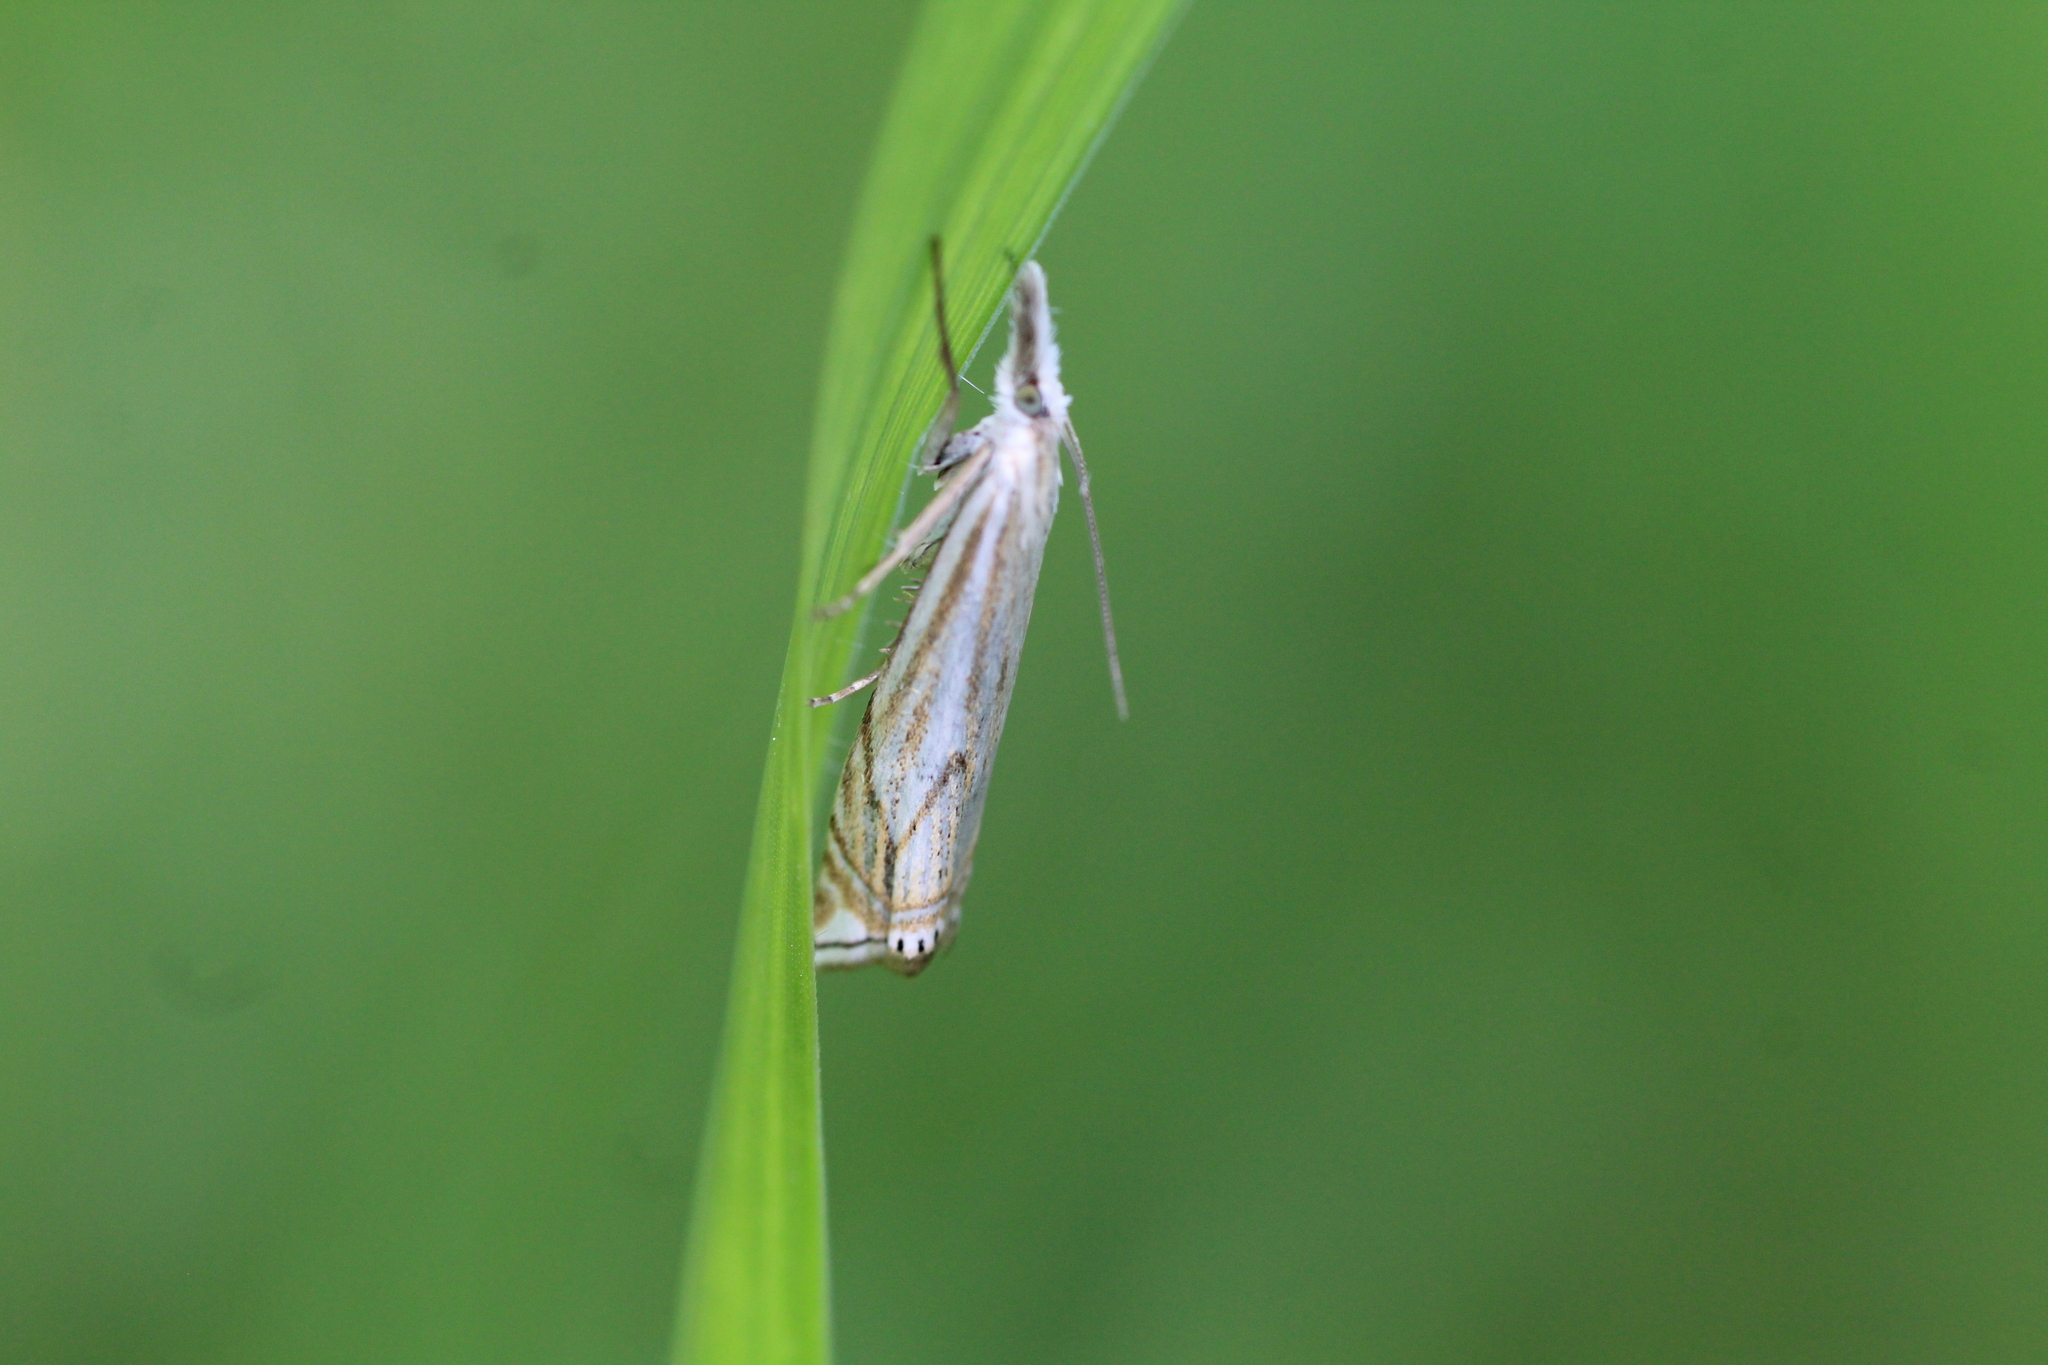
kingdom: Animalia
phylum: Arthropoda
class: Insecta
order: Lepidoptera
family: Crambidae
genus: Crambus
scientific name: Crambus nemorella
